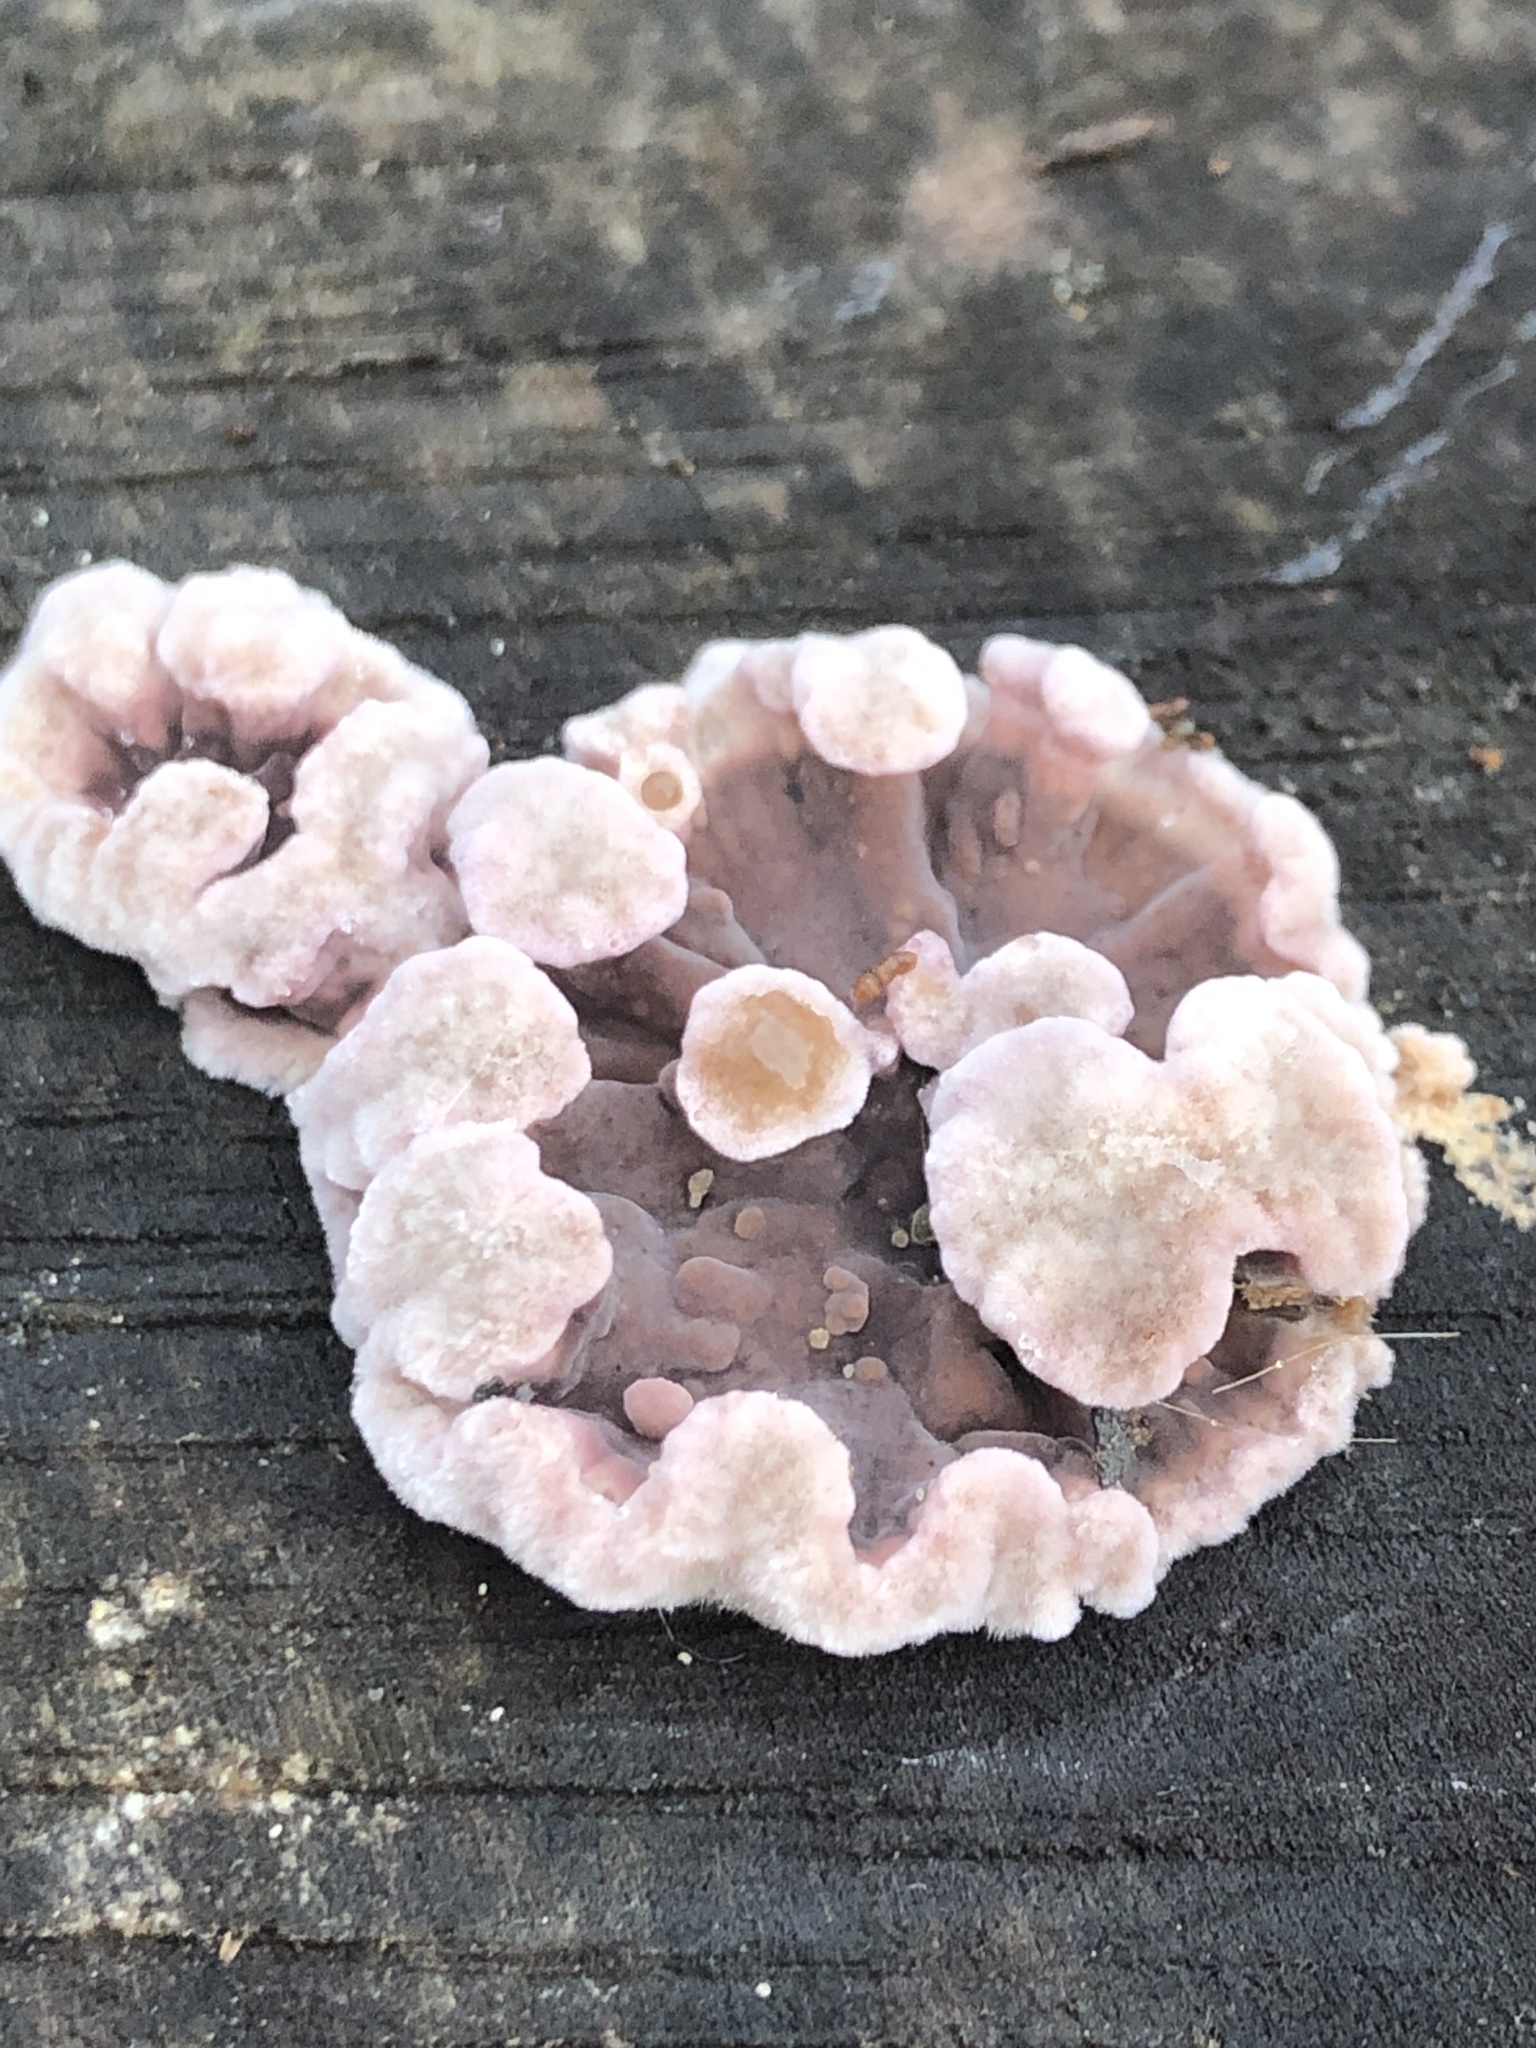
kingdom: Fungi
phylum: Basidiomycota
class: Agaricomycetes
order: Agaricales
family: Cyphellaceae
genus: Chondrostereum
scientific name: Chondrostereum purpureum
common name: Silver leaf disease
